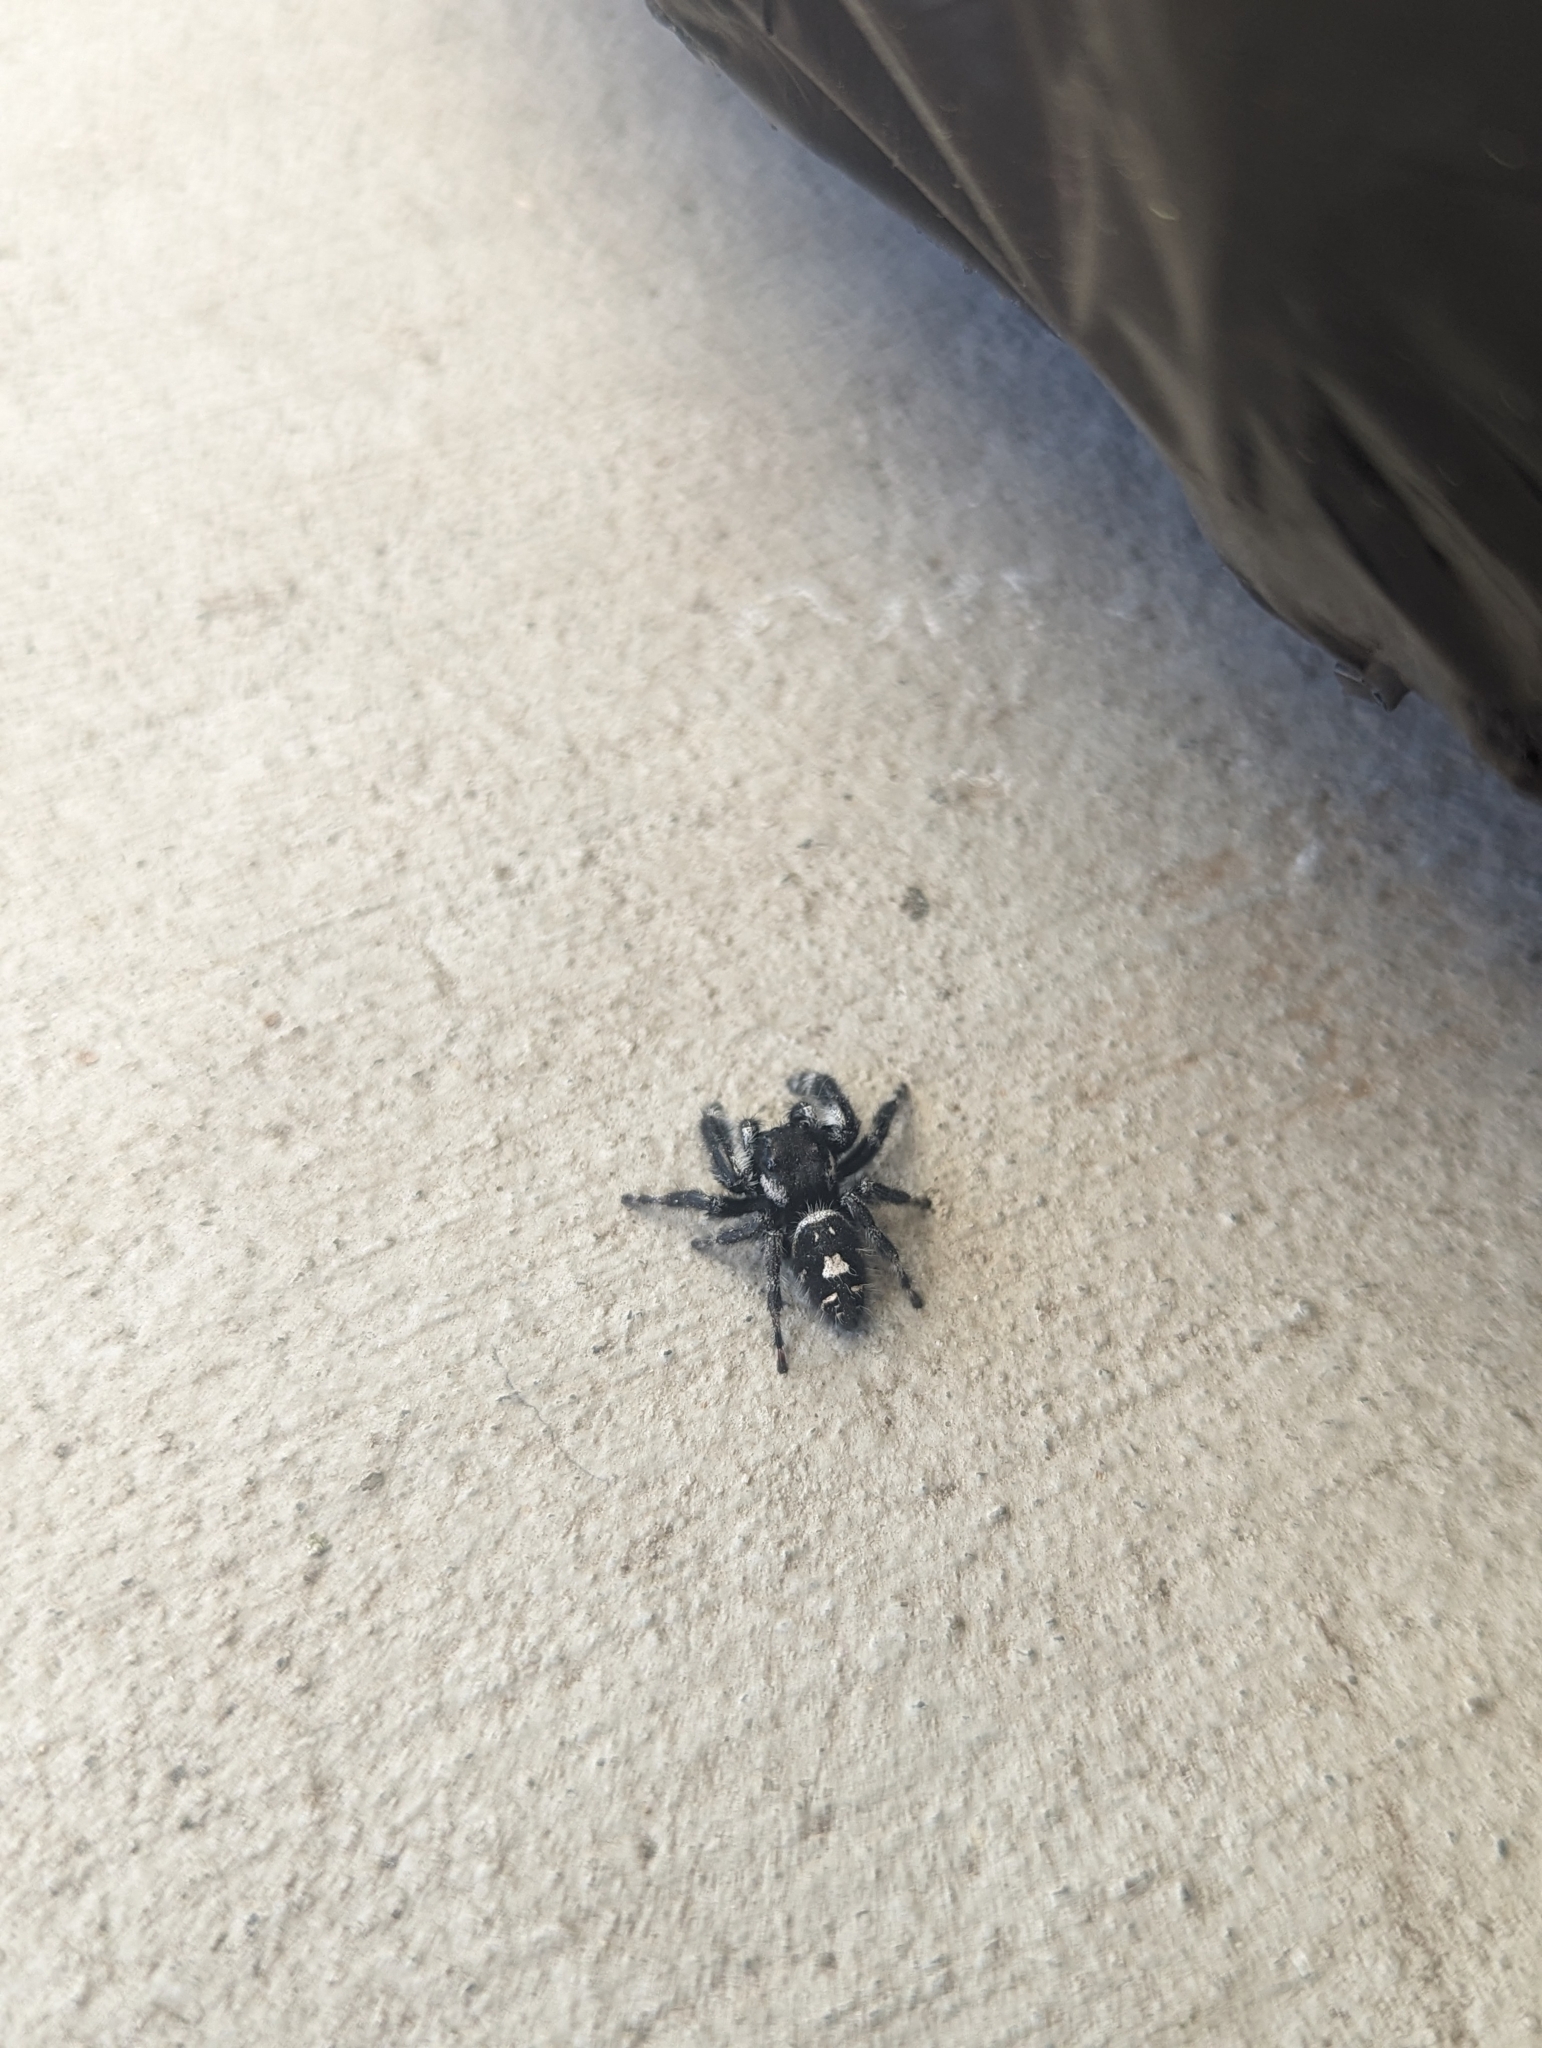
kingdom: Animalia
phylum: Arthropoda
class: Arachnida
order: Araneae
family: Salticidae
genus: Phidippus
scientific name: Phidippus audax
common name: Bold jumper
